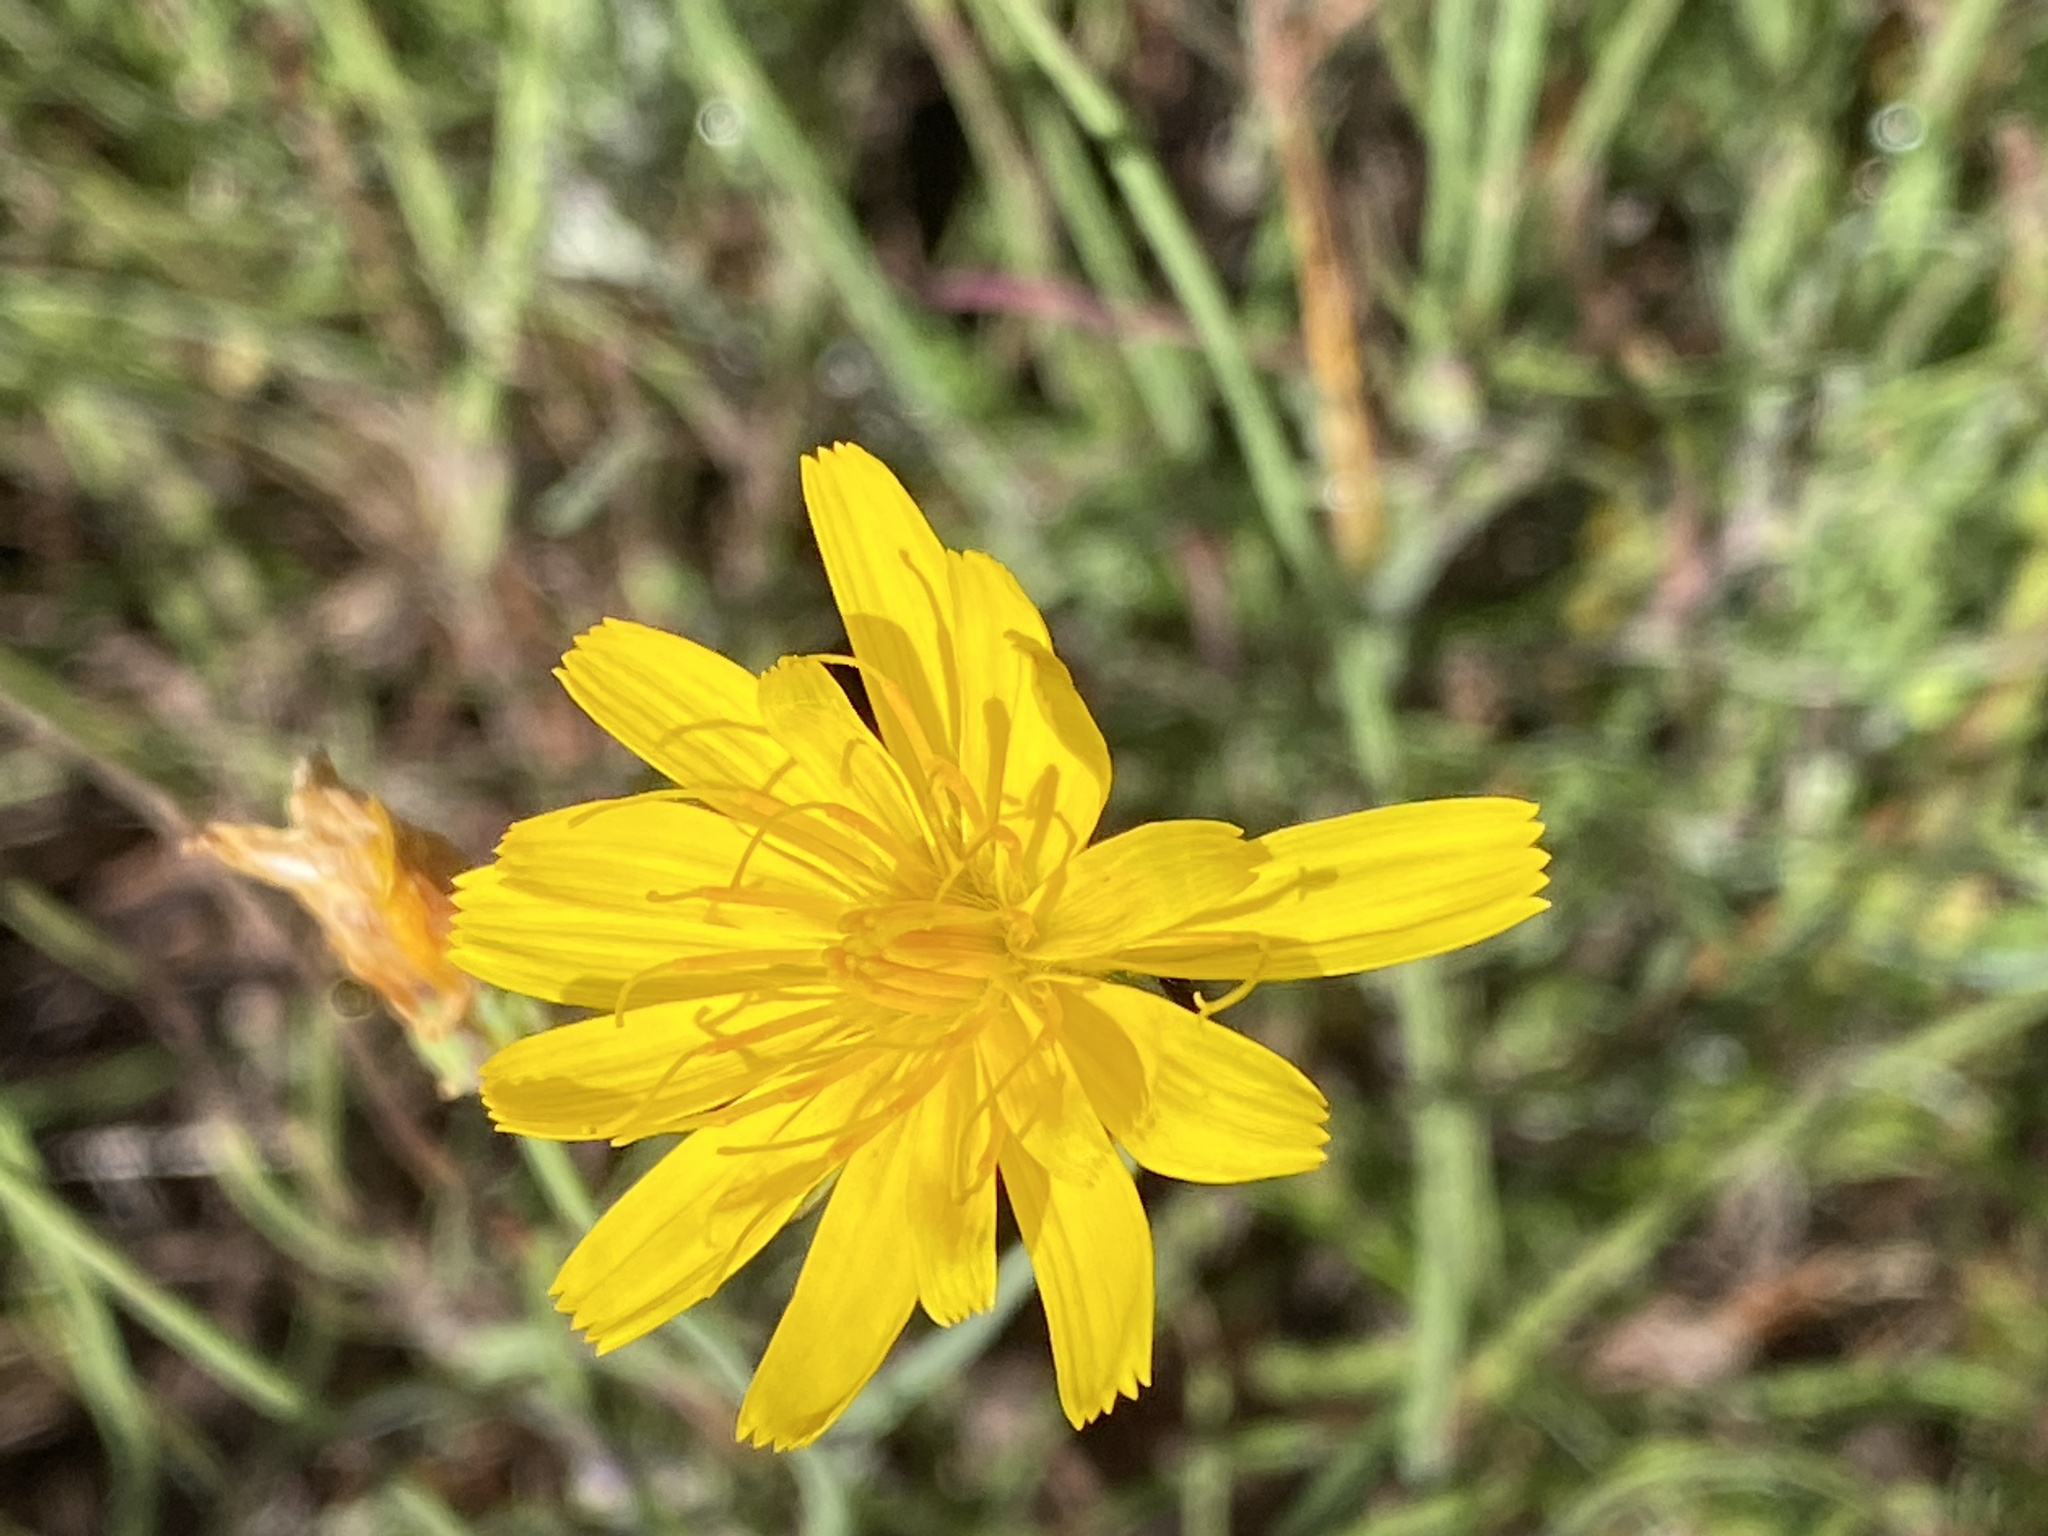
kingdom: Plantae
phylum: Tracheophyta
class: Magnoliopsida
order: Asterales
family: Asteraceae
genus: Krigia
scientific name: Krigia montana
